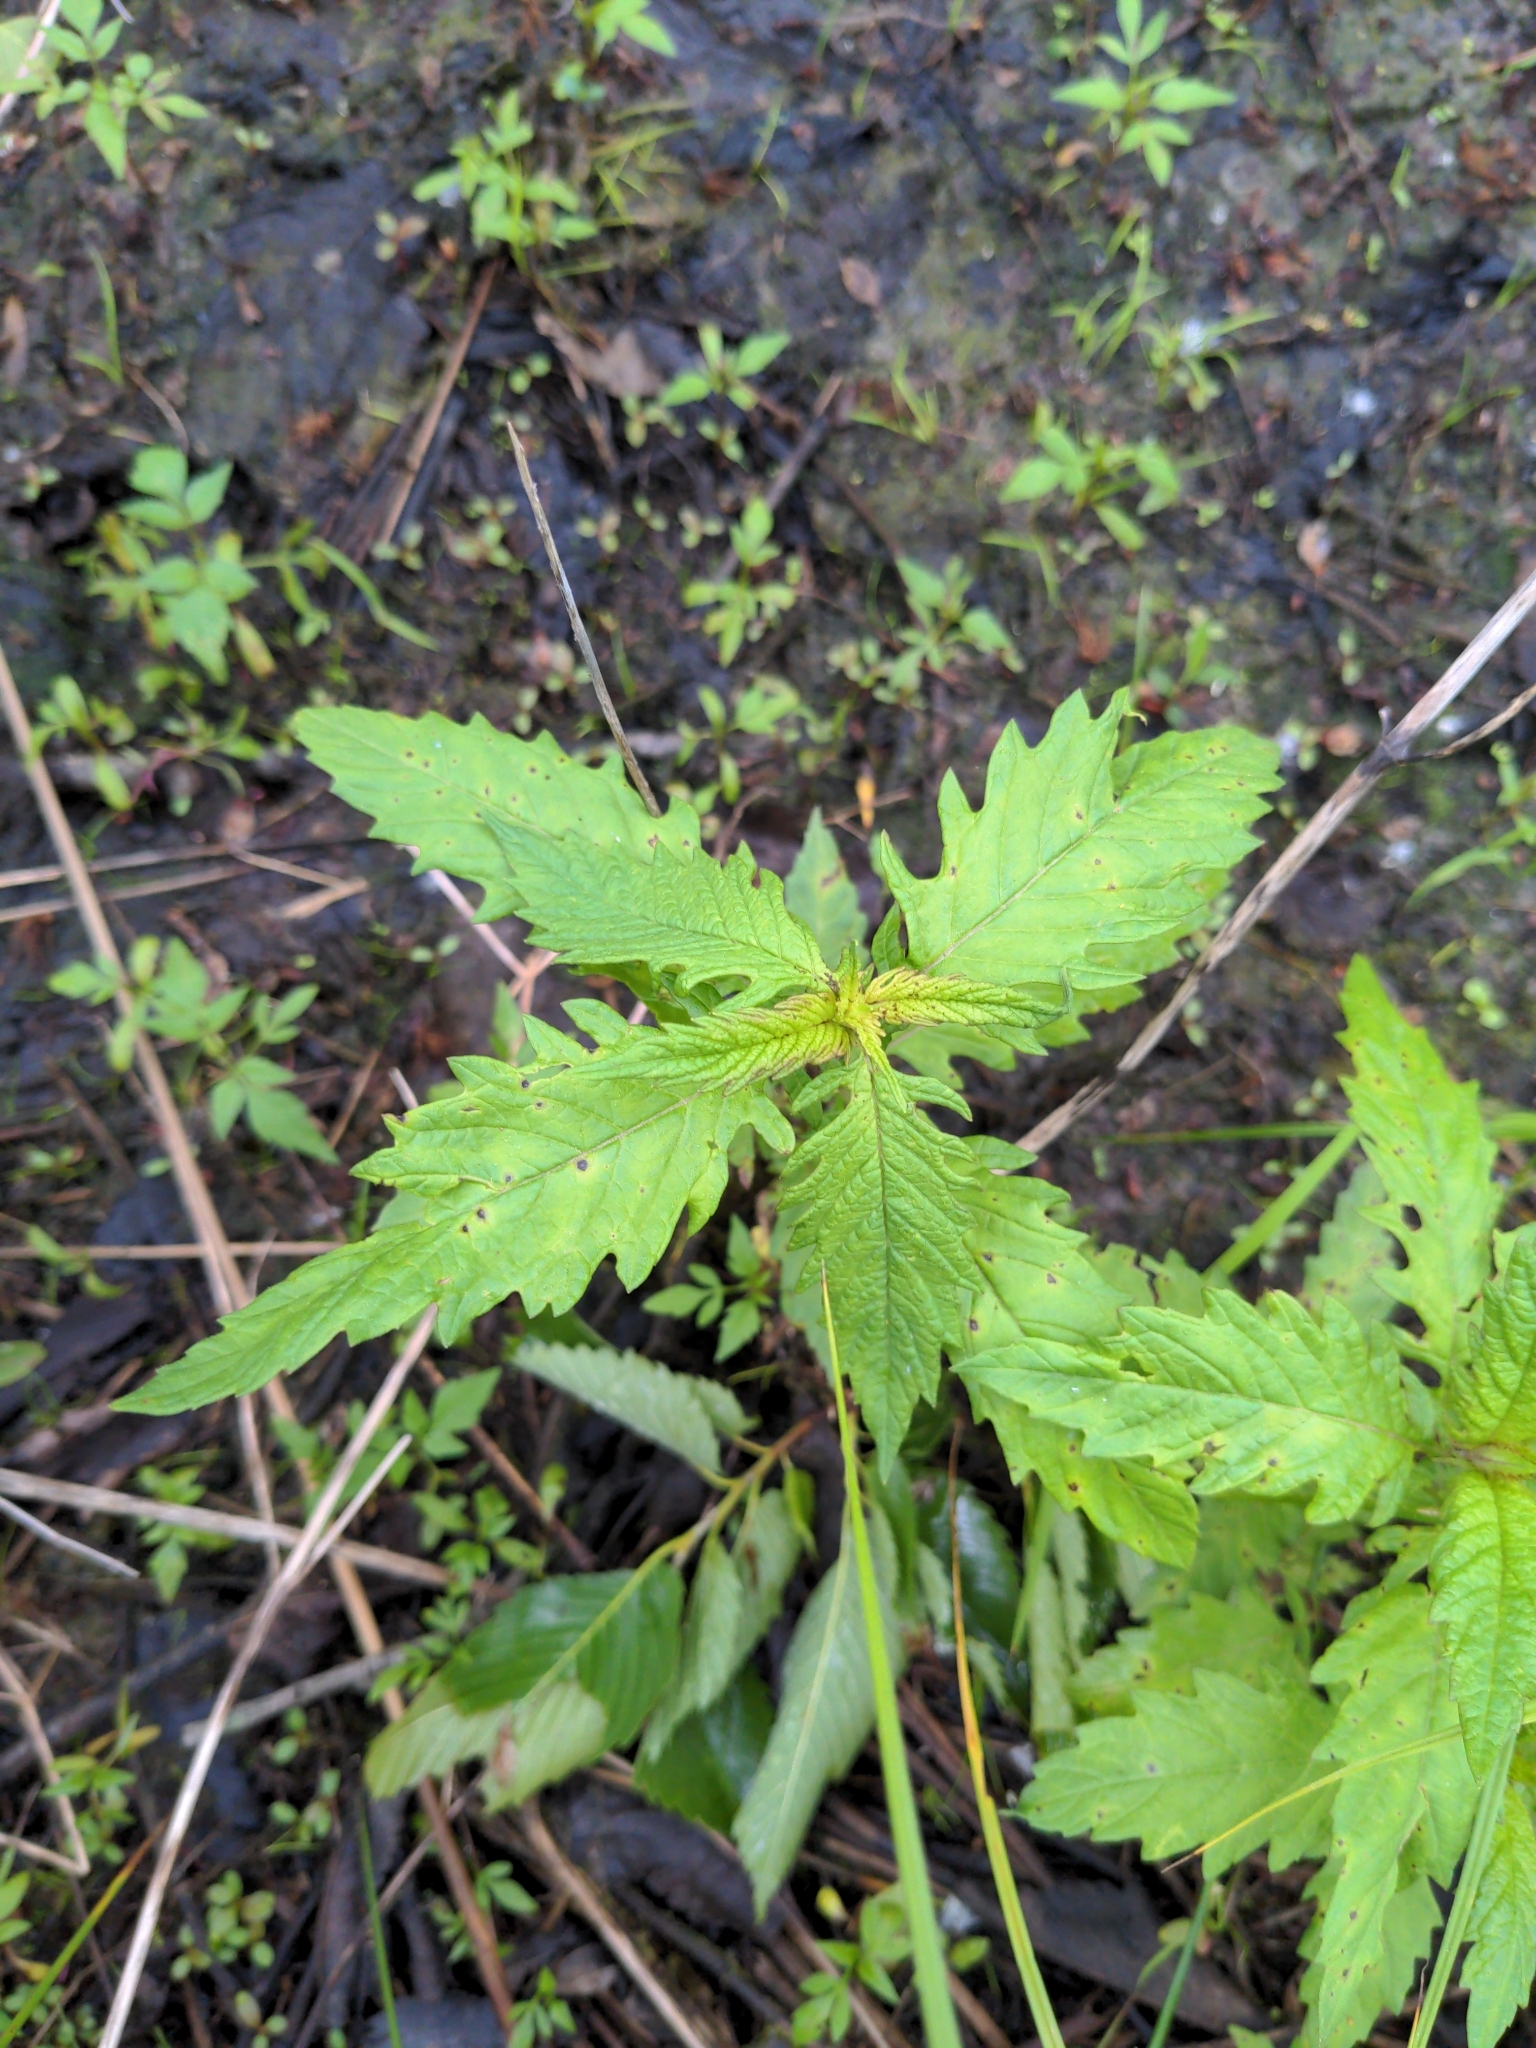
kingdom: Plantae
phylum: Tracheophyta
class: Magnoliopsida
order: Lamiales
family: Lamiaceae
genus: Lycopus
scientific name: Lycopus europaeus
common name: European bugleweed
